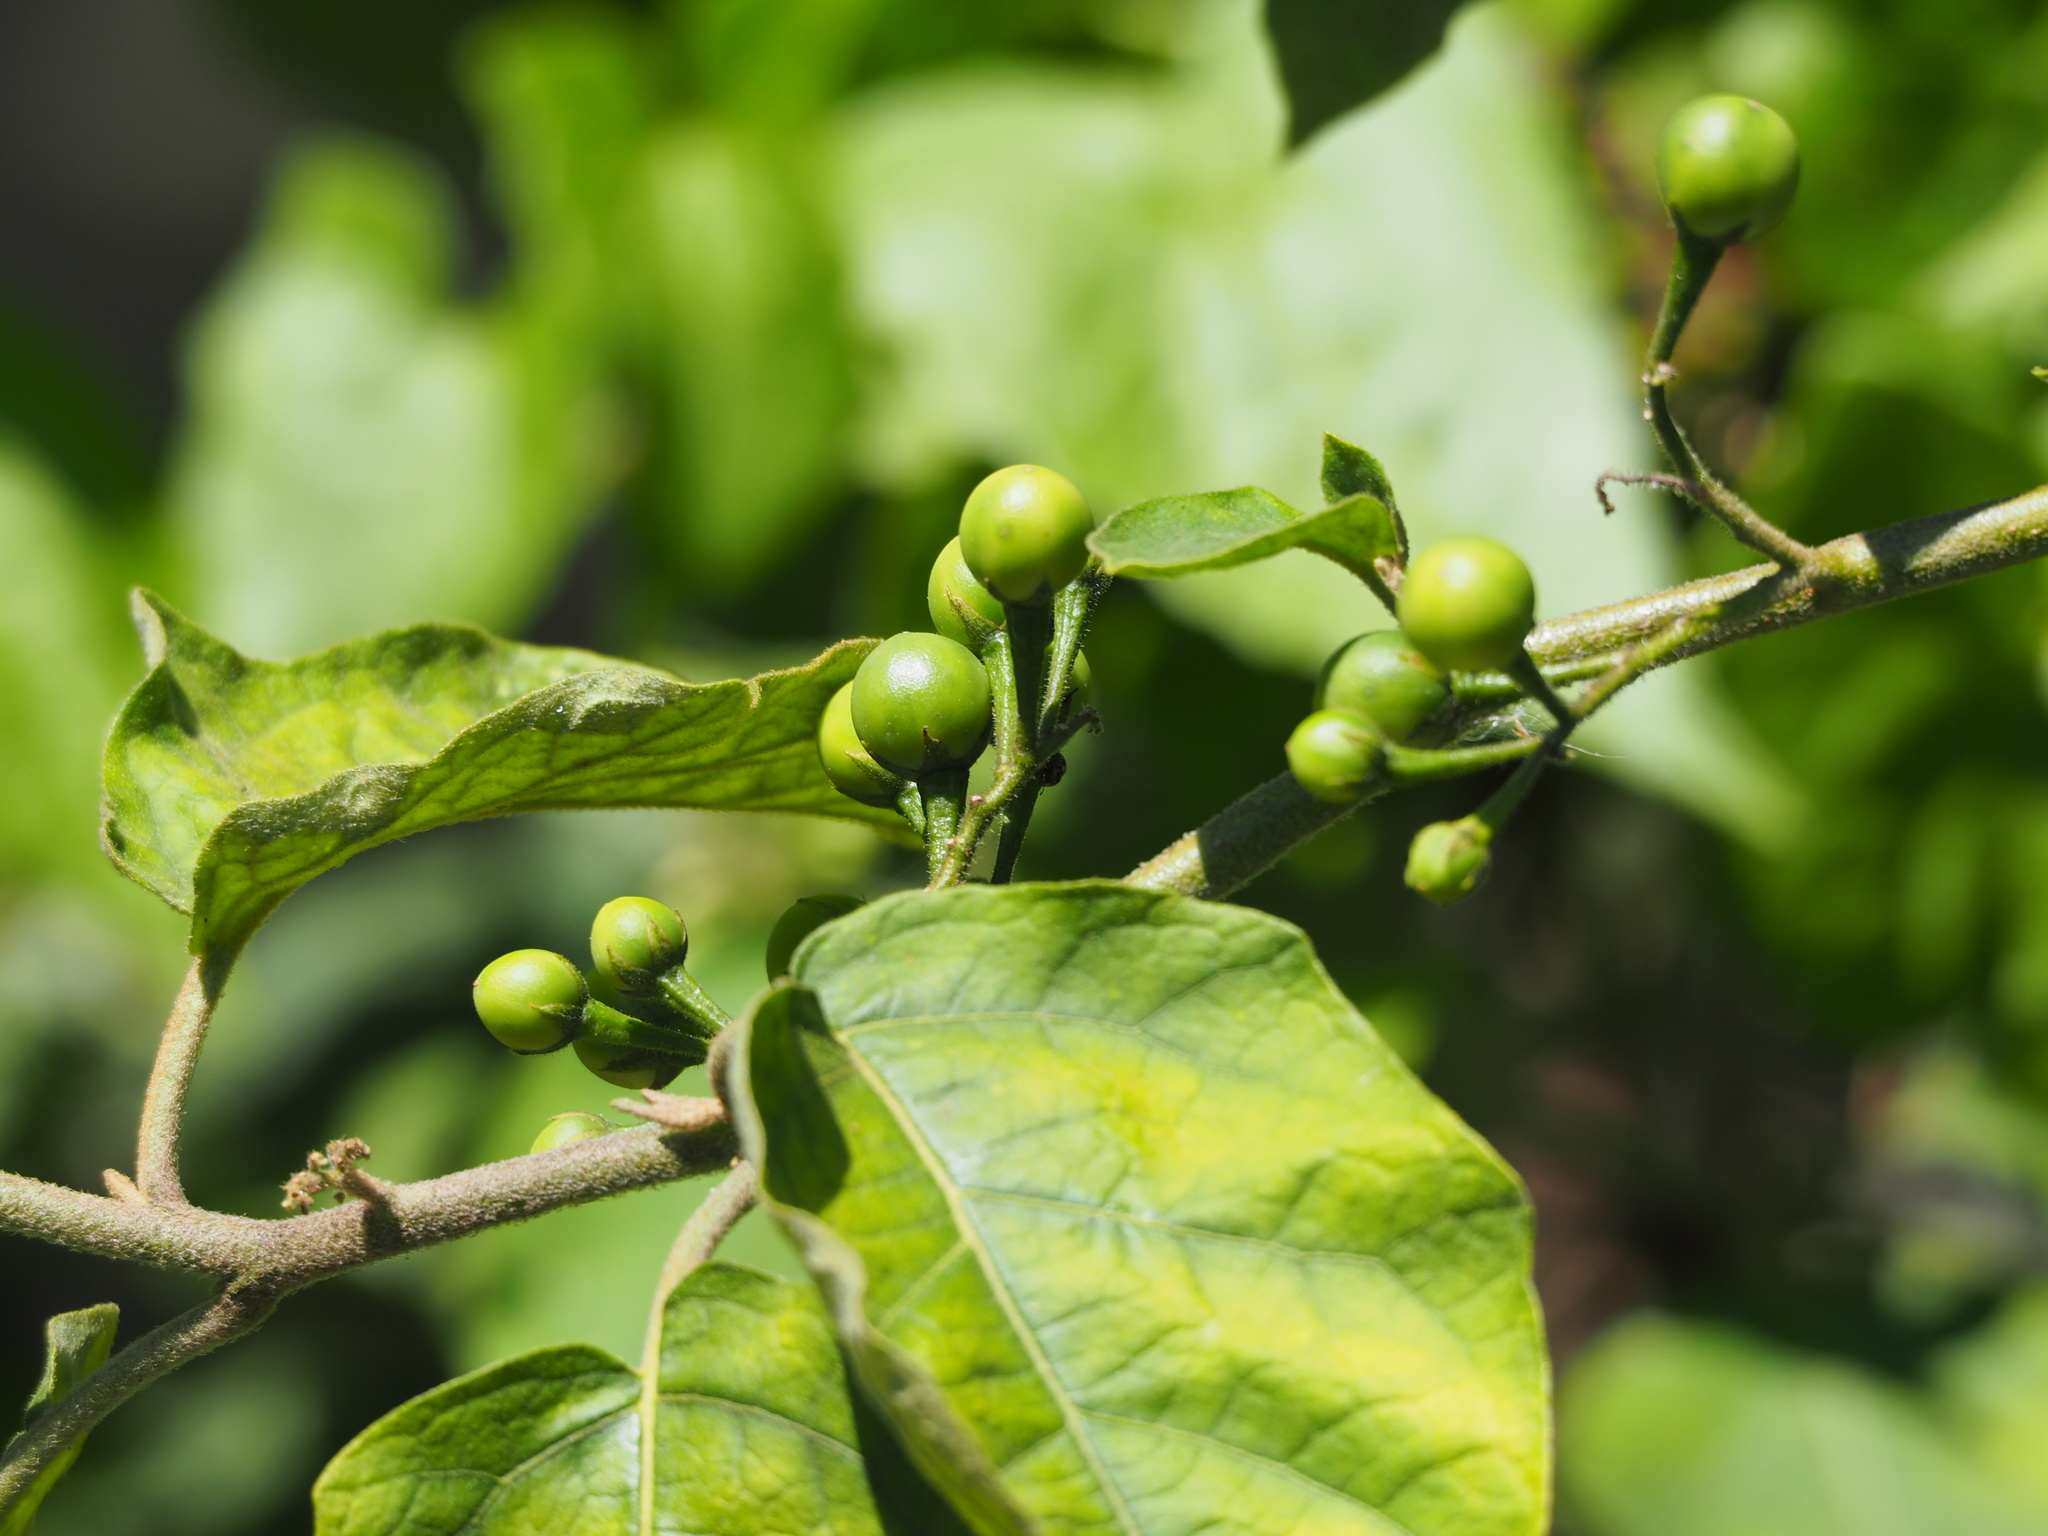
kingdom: Plantae
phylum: Tracheophyta
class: Magnoliopsida
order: Solanales
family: Solanaceae
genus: Solanum
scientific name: Solanum torvum
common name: Turkey berry
